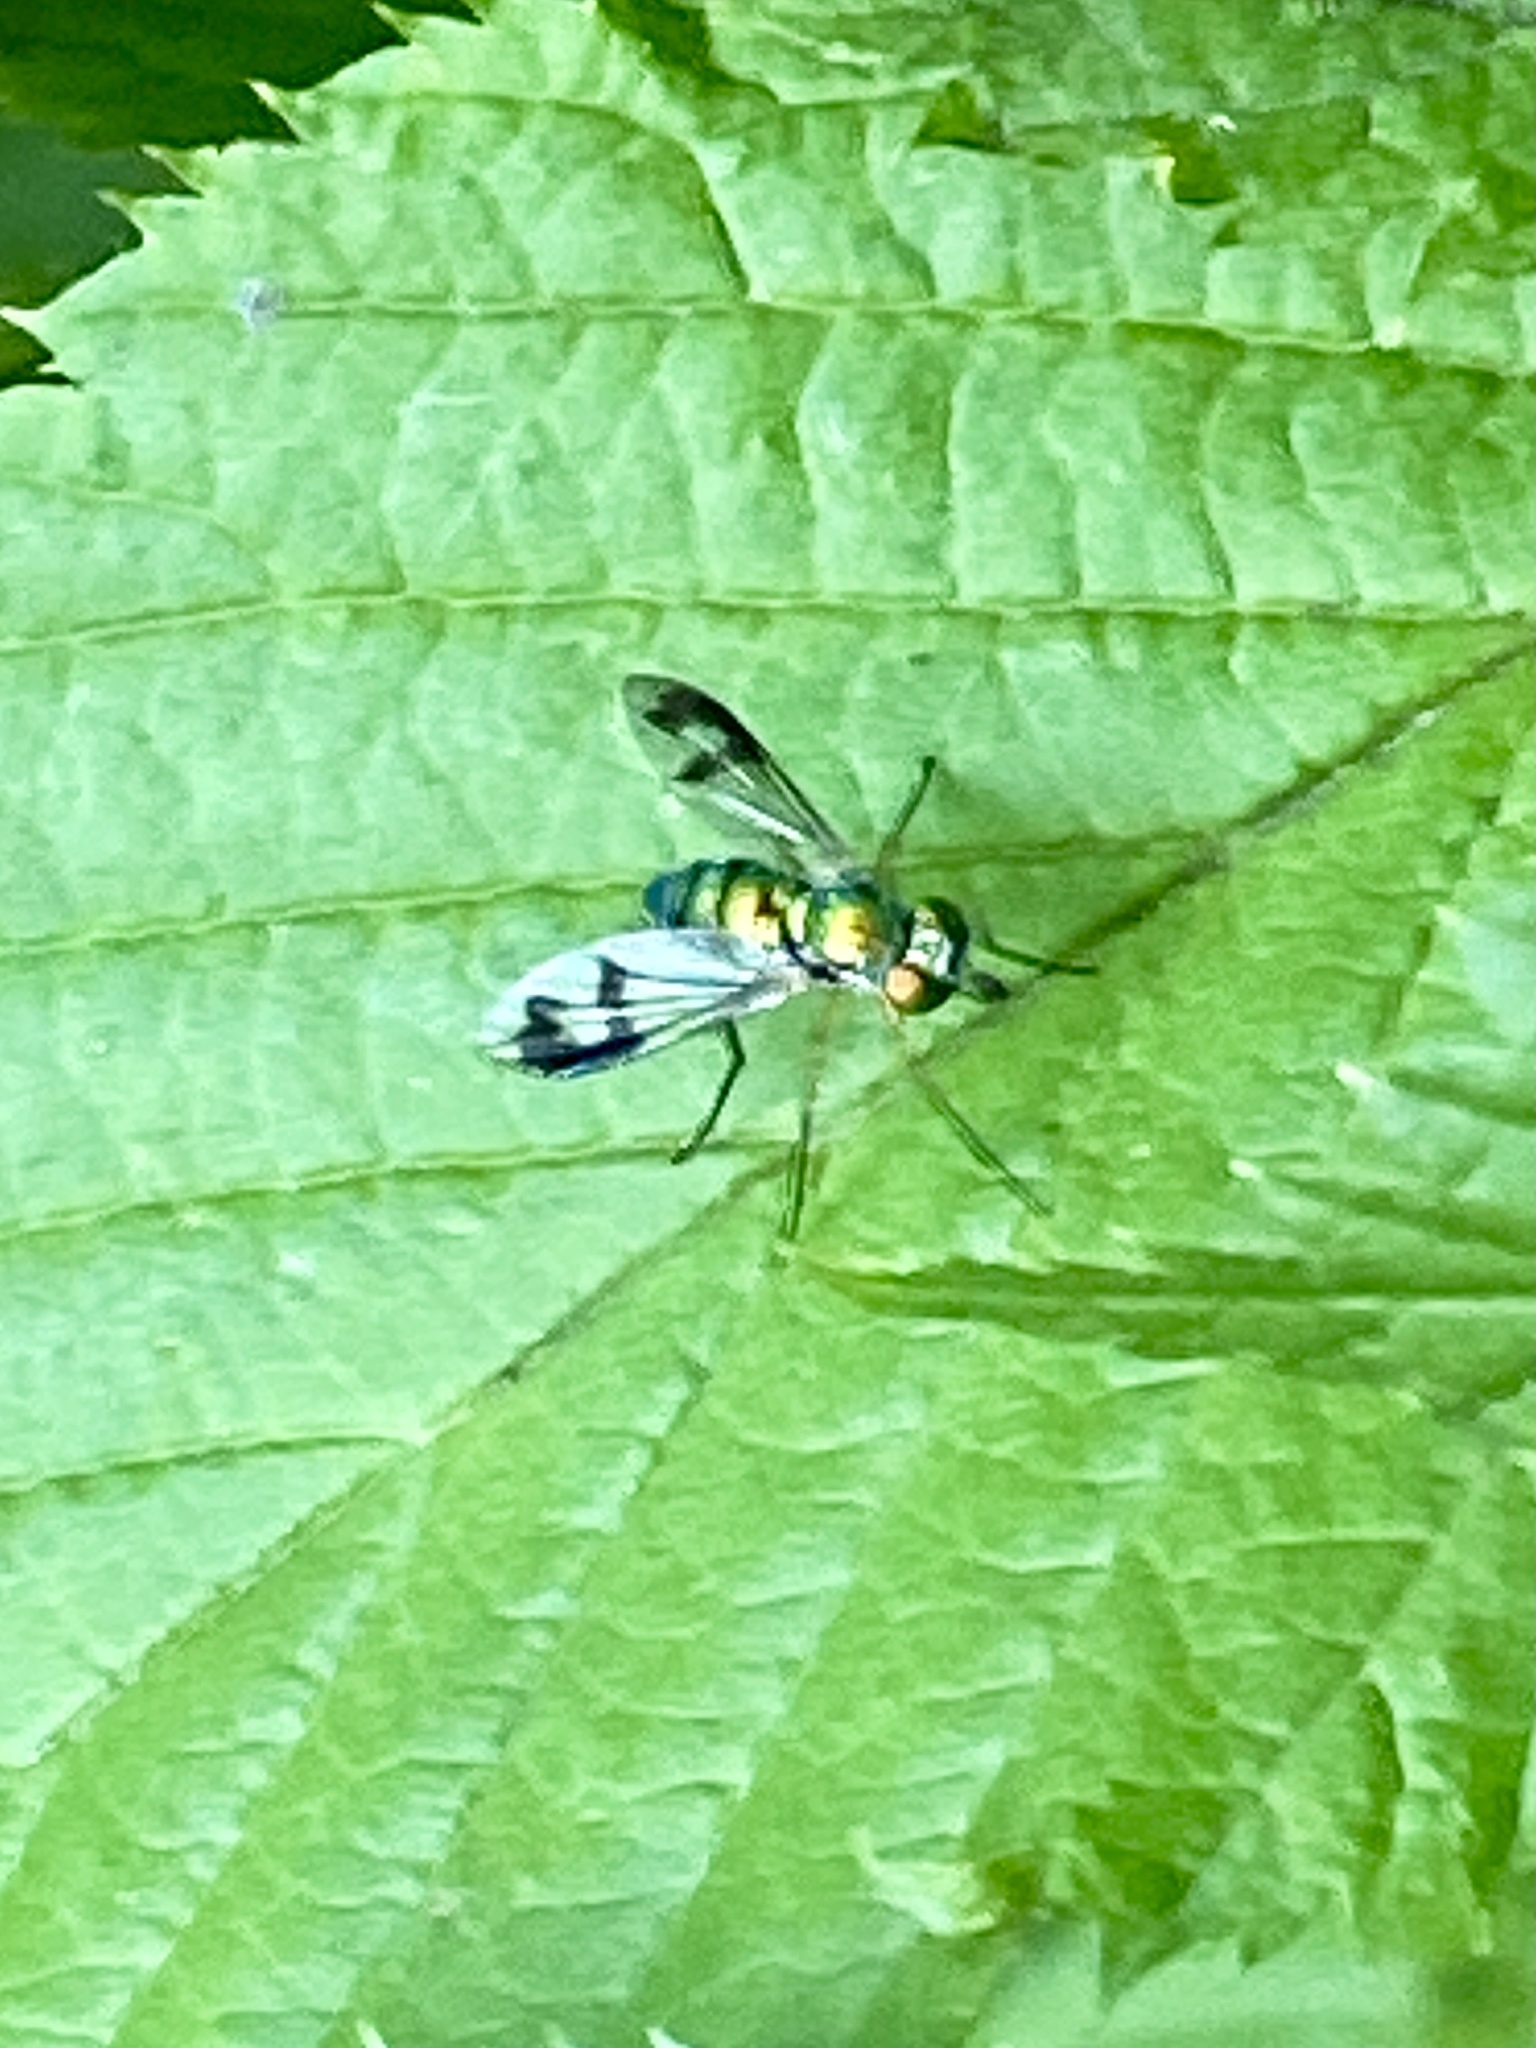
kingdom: Animalia
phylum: Arthropoda
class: Insecta
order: Diptera
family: Dolichopodidae
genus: Condylostylus
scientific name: Condylostylus
